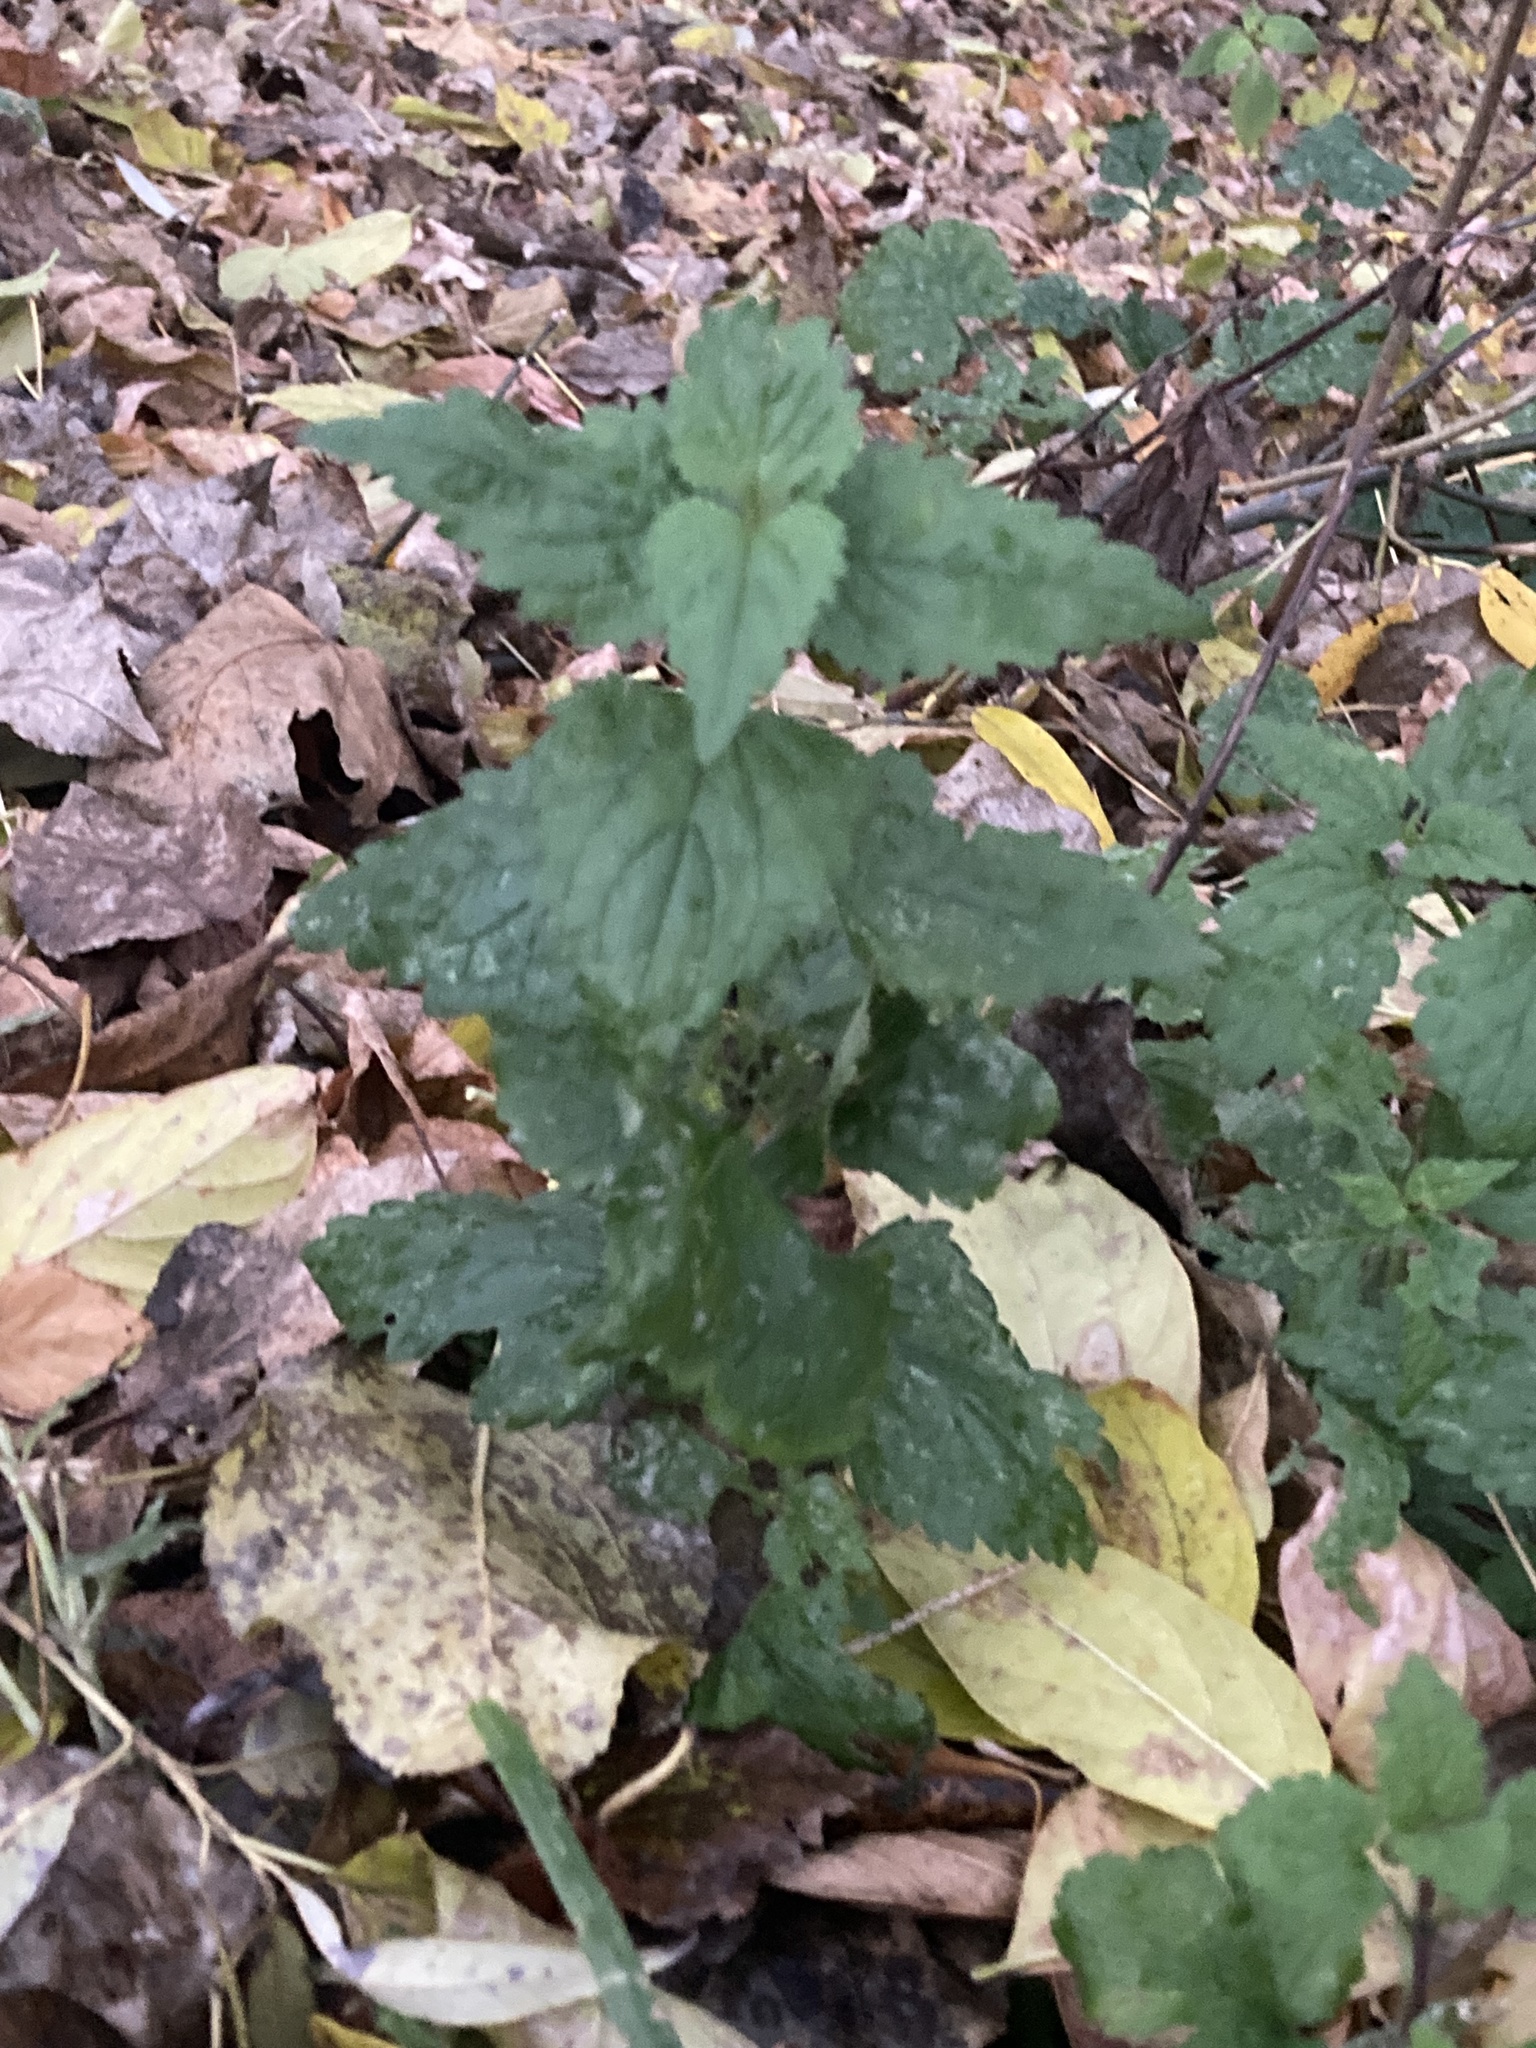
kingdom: Plantae
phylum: Tracheophyta
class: Magnoliopsida
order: Lamiales
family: Lamiaceae
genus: Lamium
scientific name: Lamium album
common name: White dead-nettle
